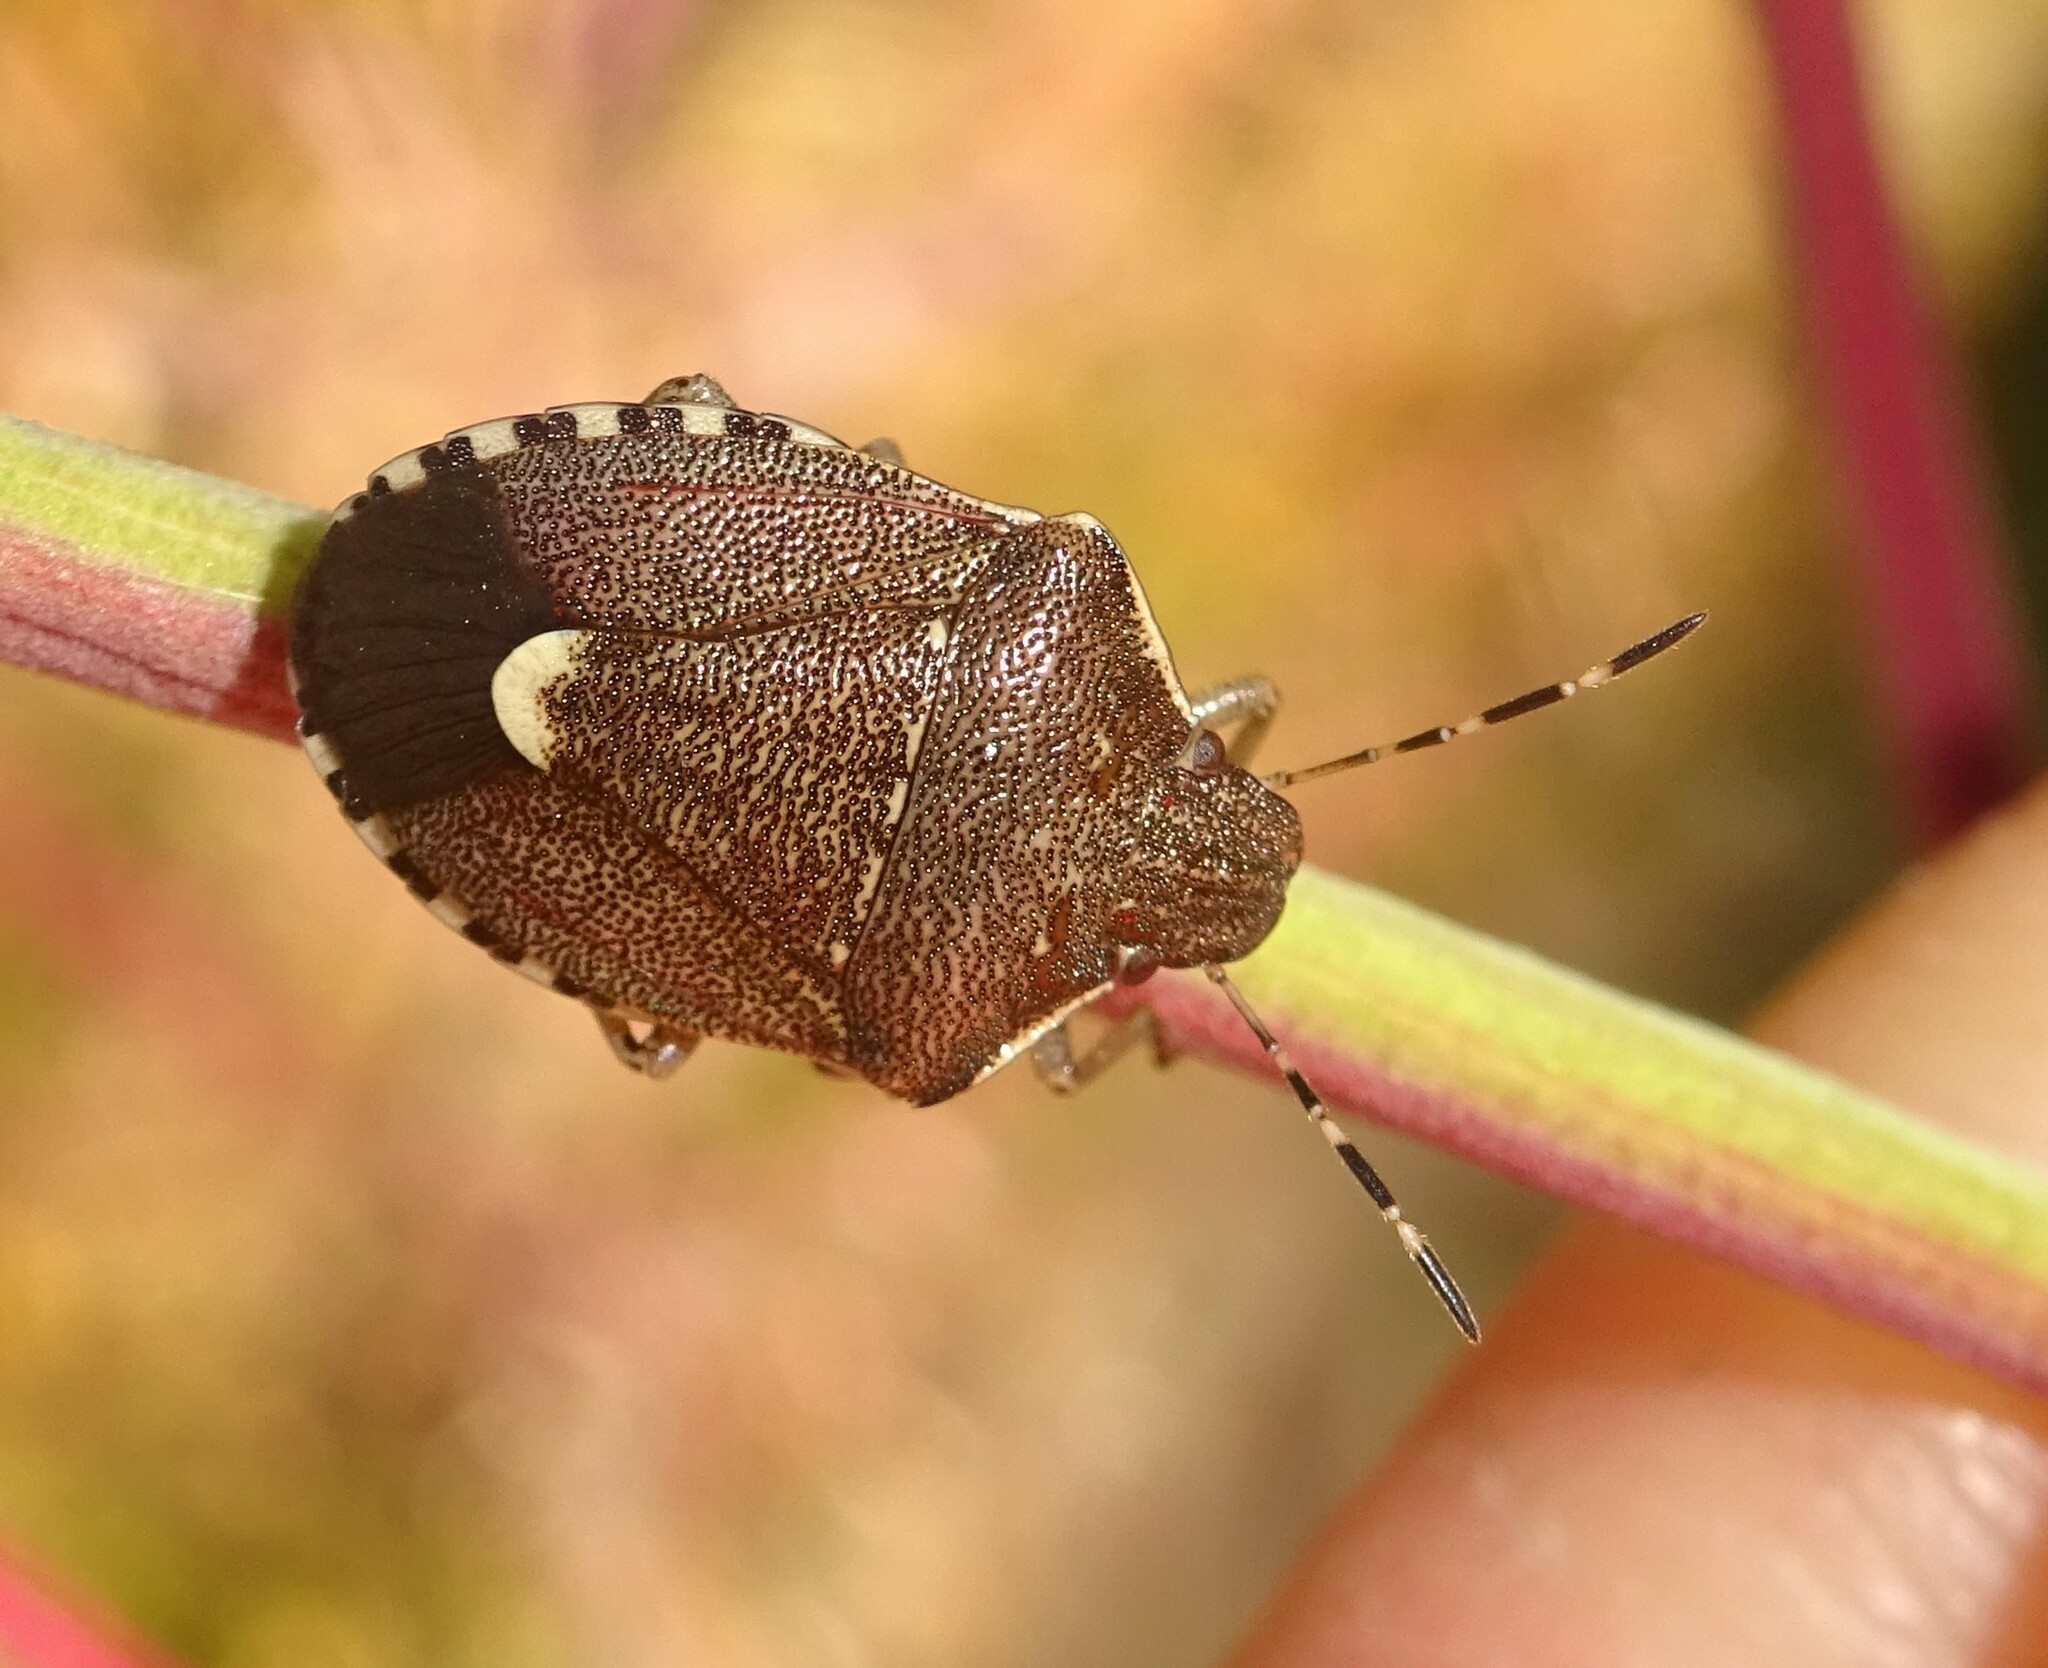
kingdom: Animalia
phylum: Arthropoda
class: Insecta
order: Hemiptera
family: Pentatomidae
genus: Holcostethus
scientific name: Holcostethus sphacelatus
